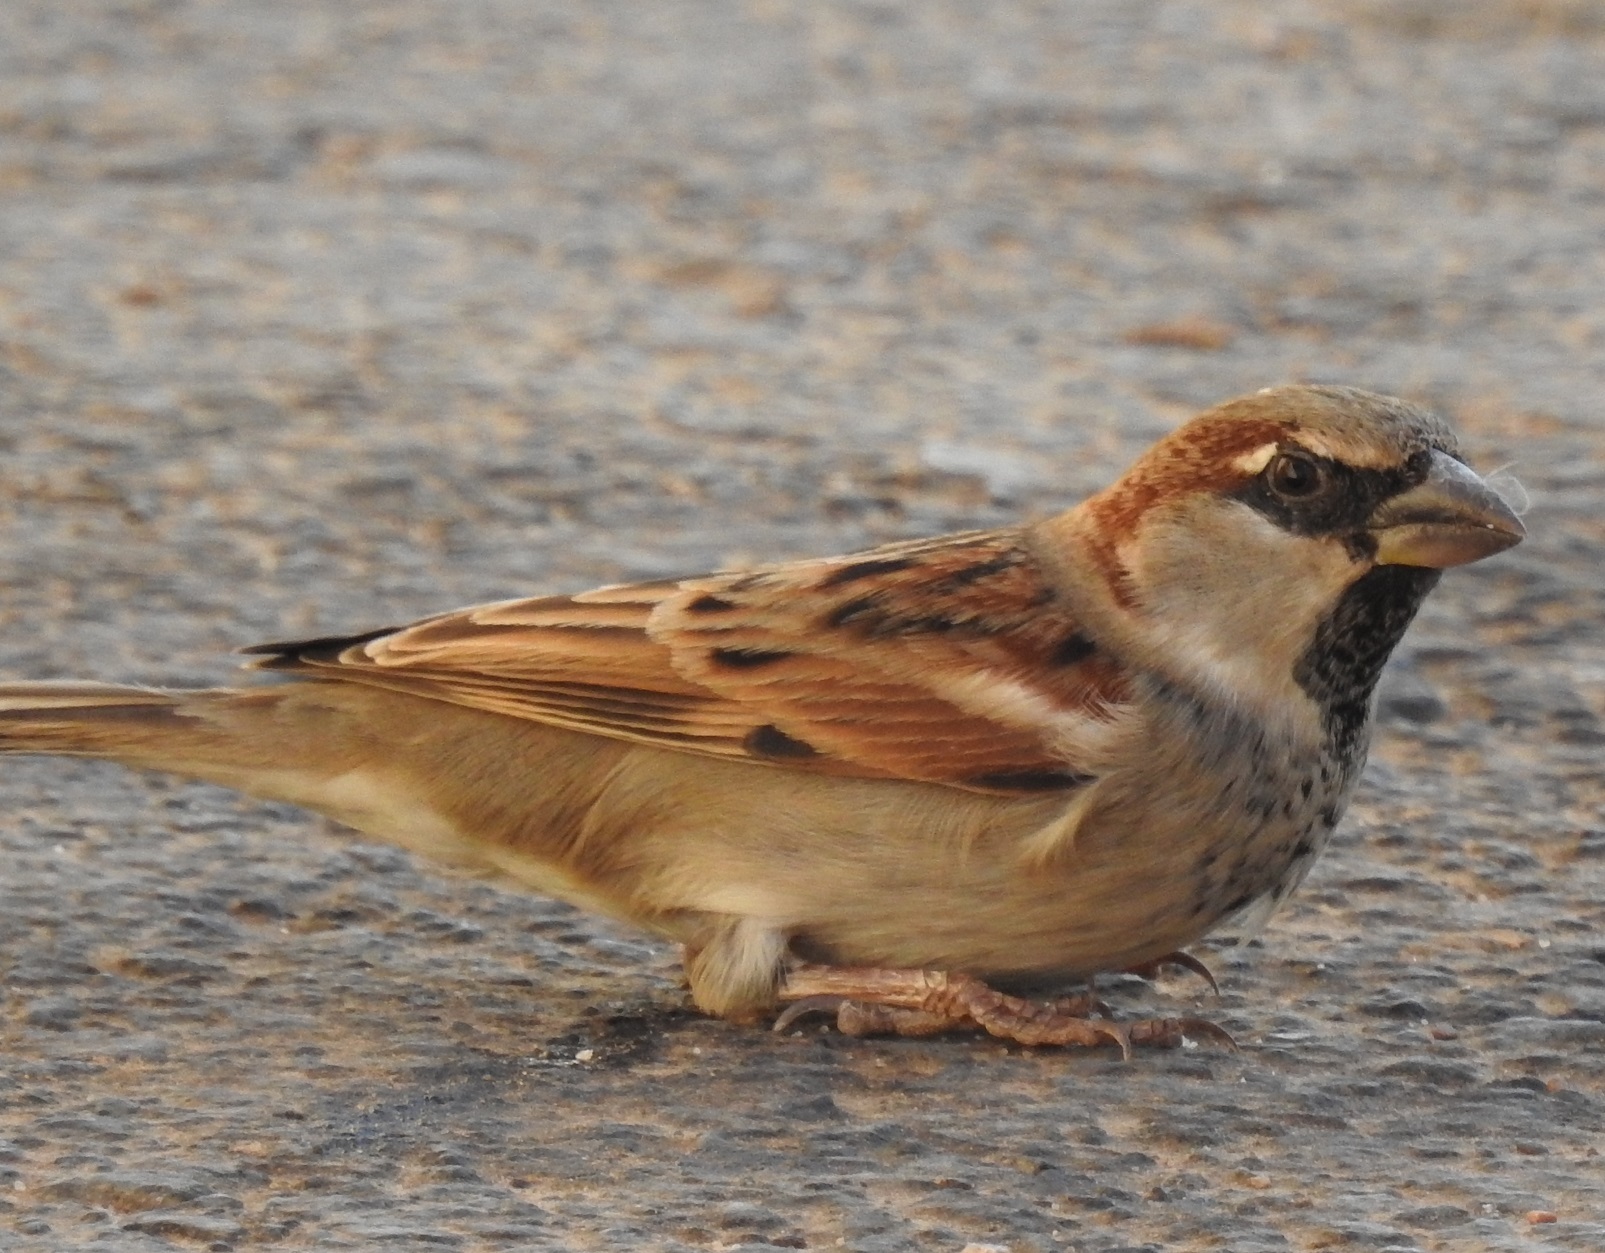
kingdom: Animalia
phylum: Chordata
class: Aves
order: Passeriformes
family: Passeridae
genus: Passer
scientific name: Passer domesticus
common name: House sparrow
